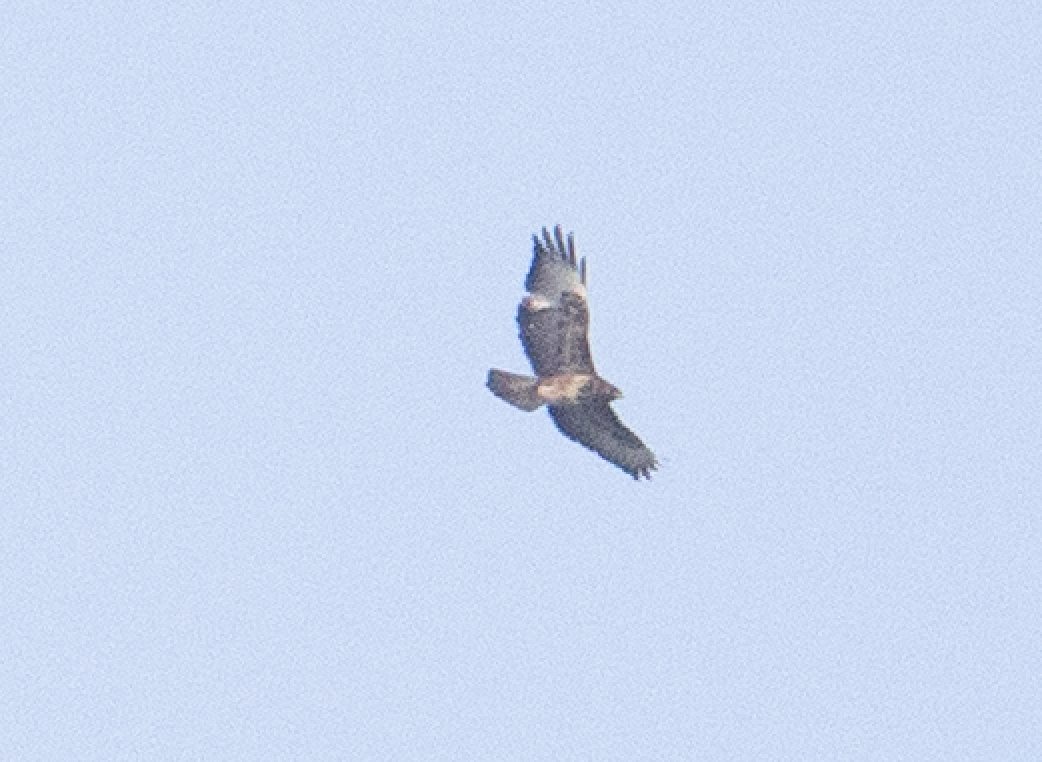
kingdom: Animalia
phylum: Chordata
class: Aves
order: Accipitriformes
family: Accipitridae
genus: Buteo
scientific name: Buteo buteo
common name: Common buzzard
